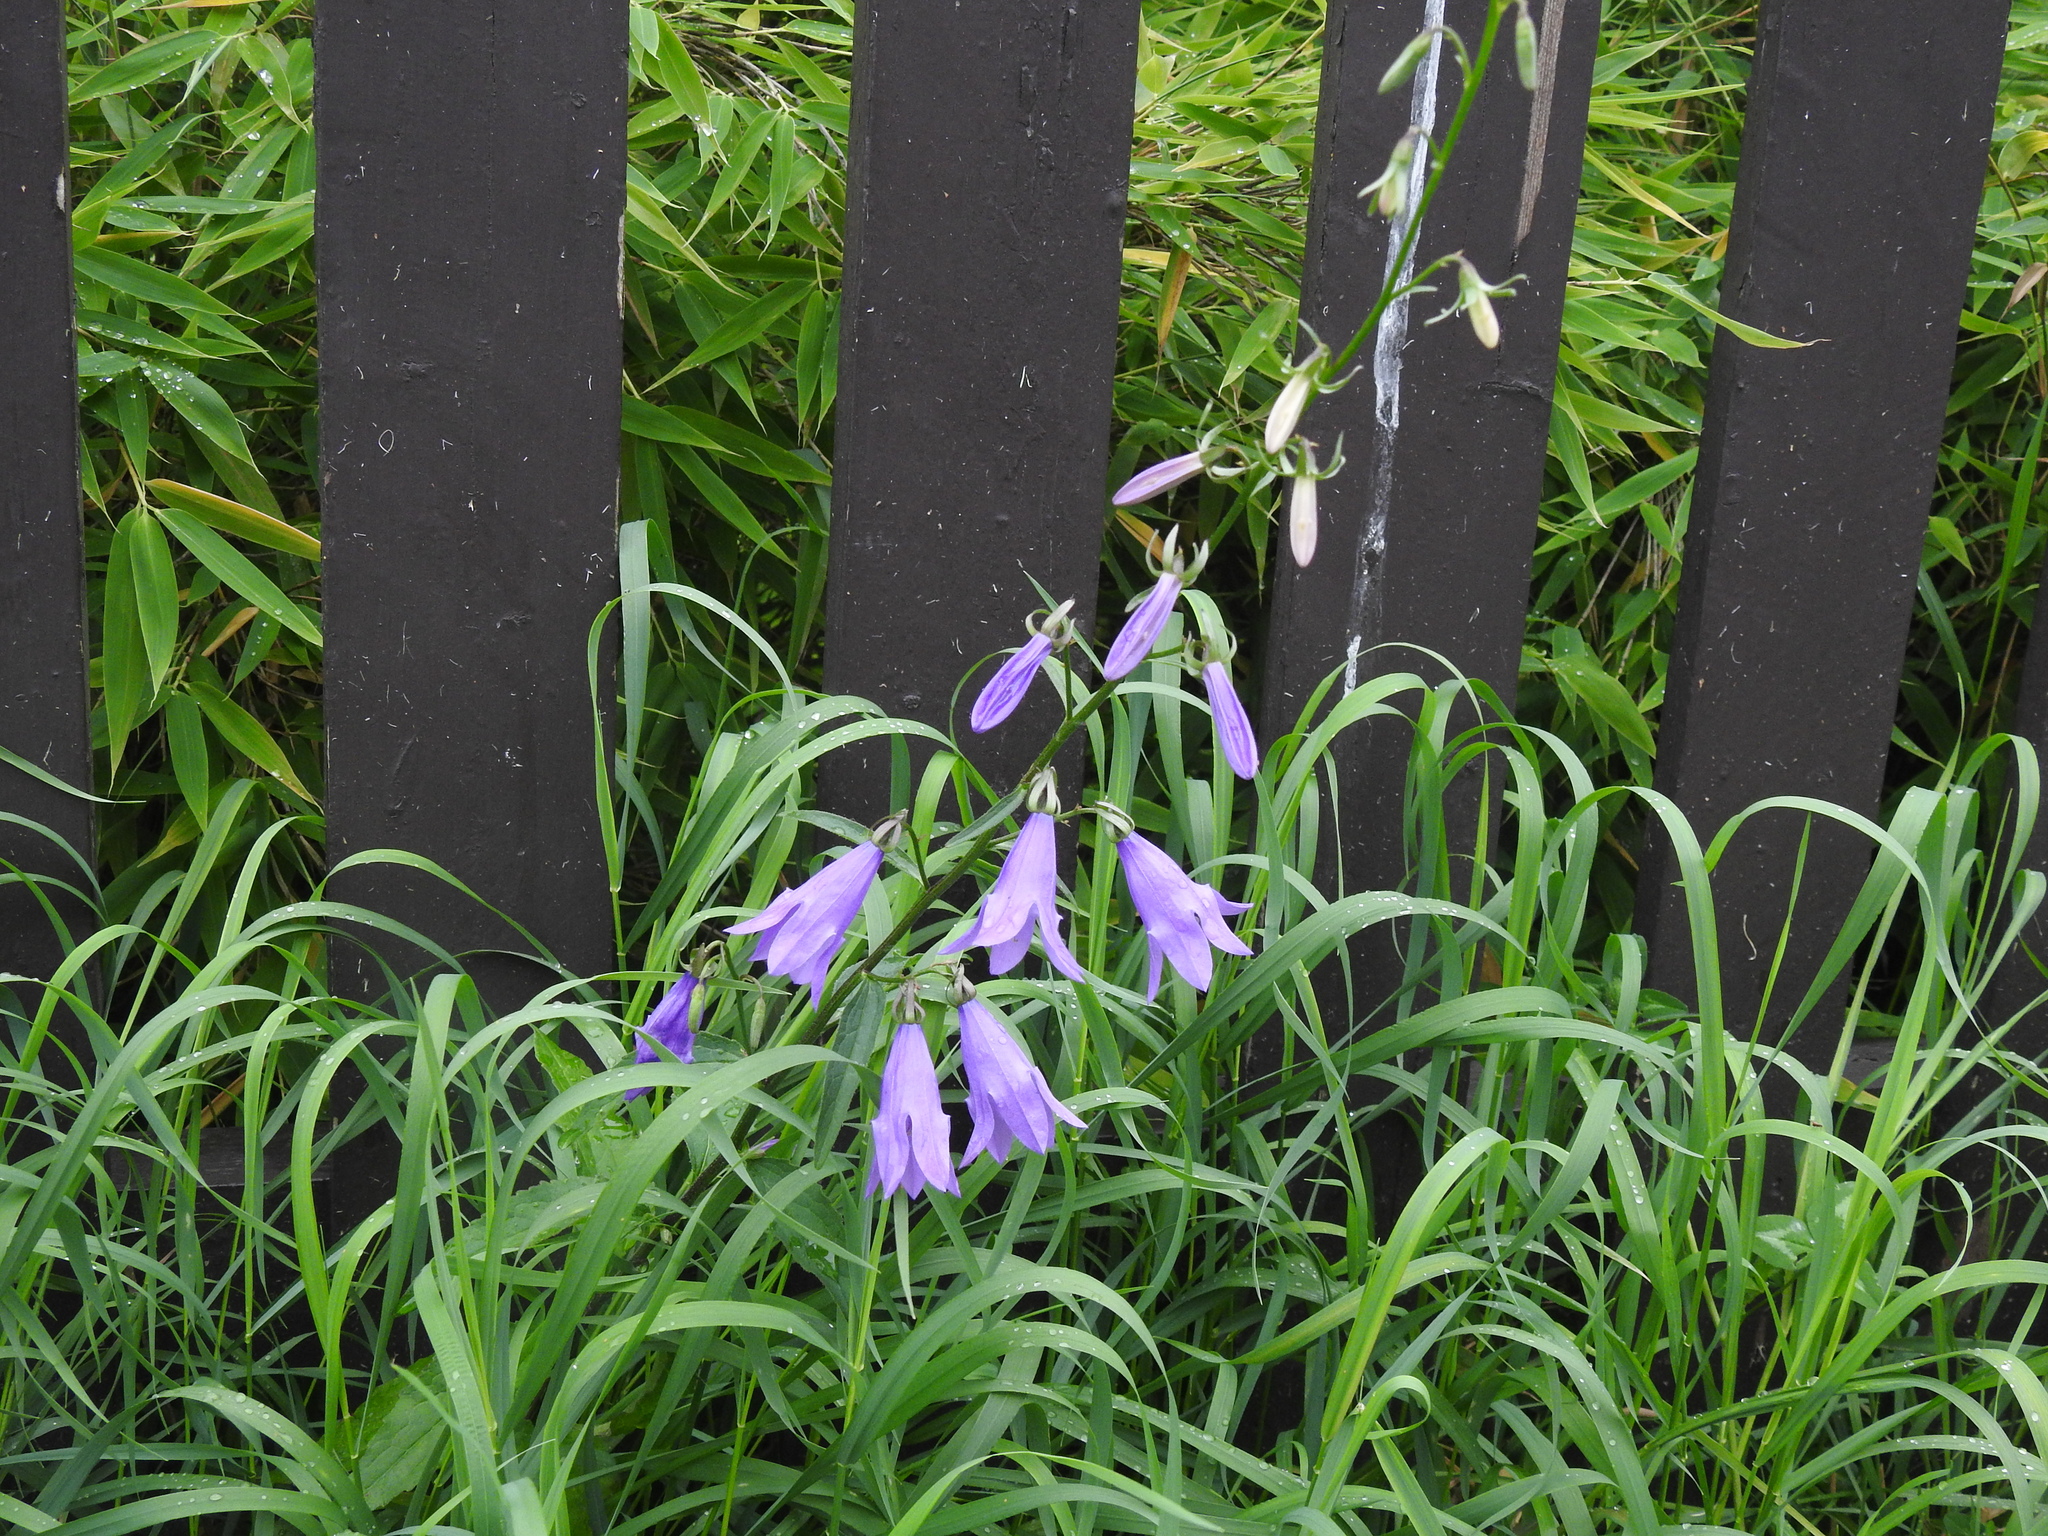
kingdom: Plantae
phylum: Tracheophyta
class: Magnoliopsida
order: Asterales
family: Campanulaceae
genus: Campanula
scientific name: Campanula rapunculoides
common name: Creeping bellflower
